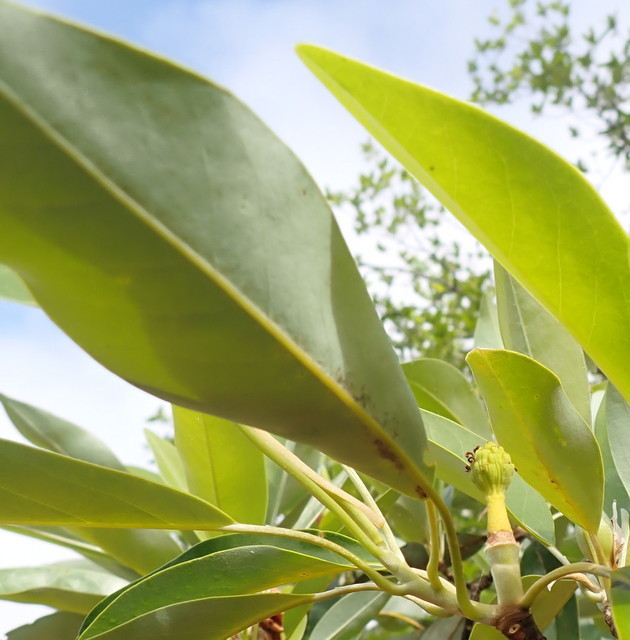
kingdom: Plantae
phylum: Tracheophyta
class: Magnoliopsida
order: Magnoliales
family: Magnoliaceae
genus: Magnolia
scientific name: Magnolia virginiana
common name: Swamp bay
